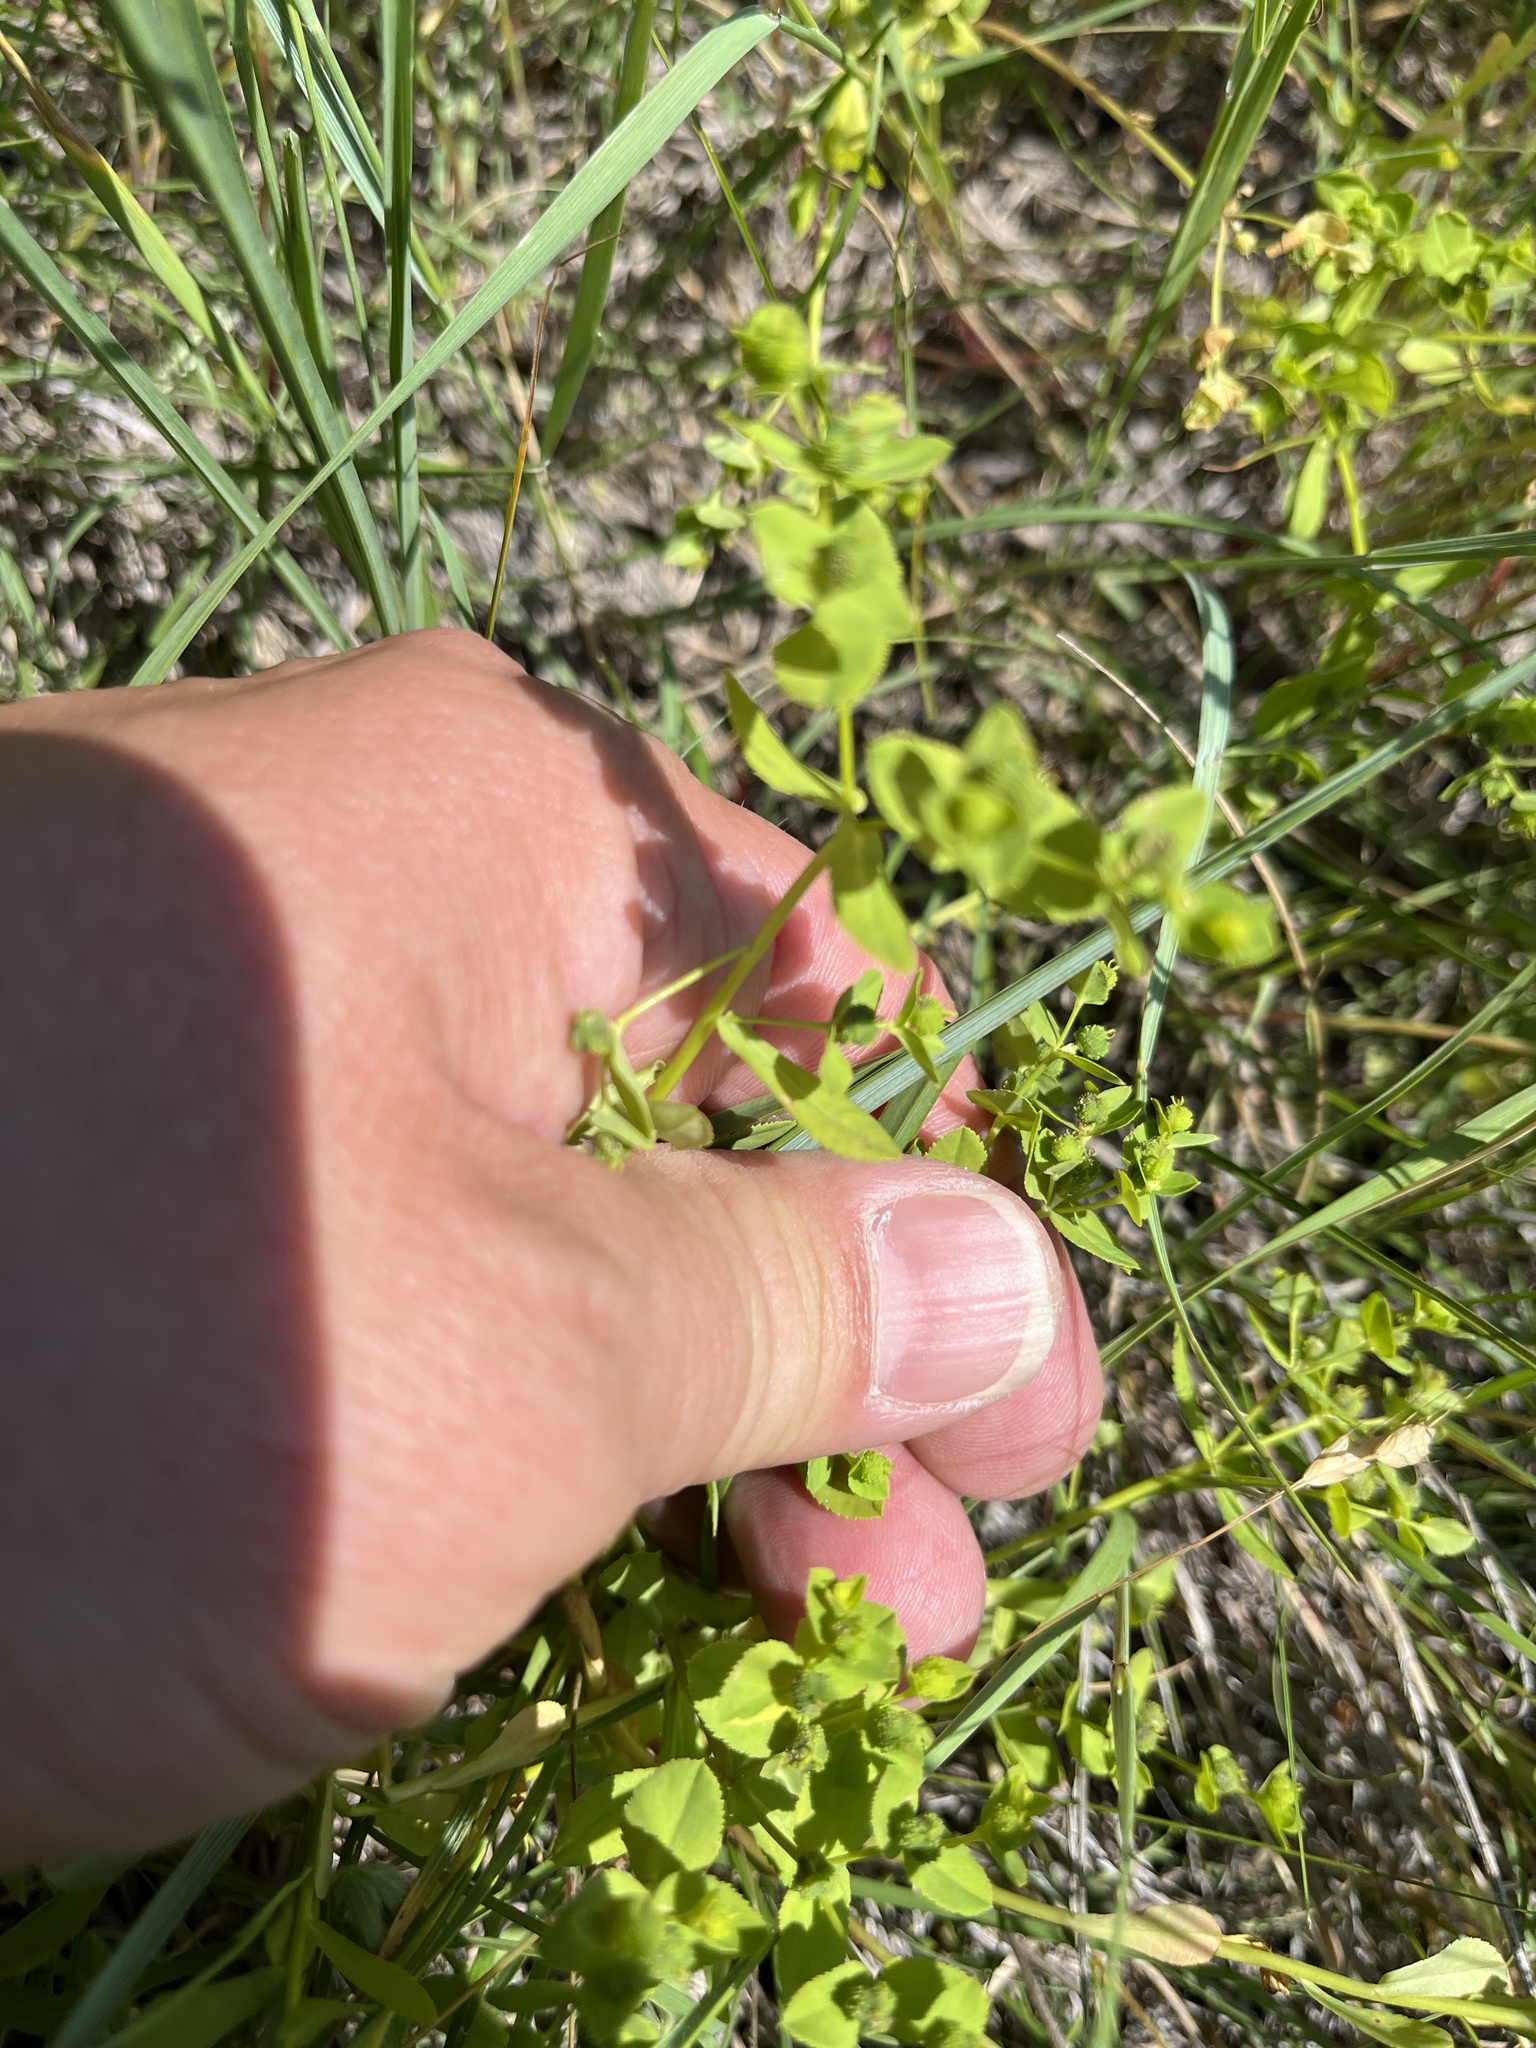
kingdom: Plantae
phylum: Tracheophyta
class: Magnoliopsida
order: Malpighiales
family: Euphorbiaceae
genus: Euphorbia
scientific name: Euphorbia spathulata
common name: Blunt spurge
